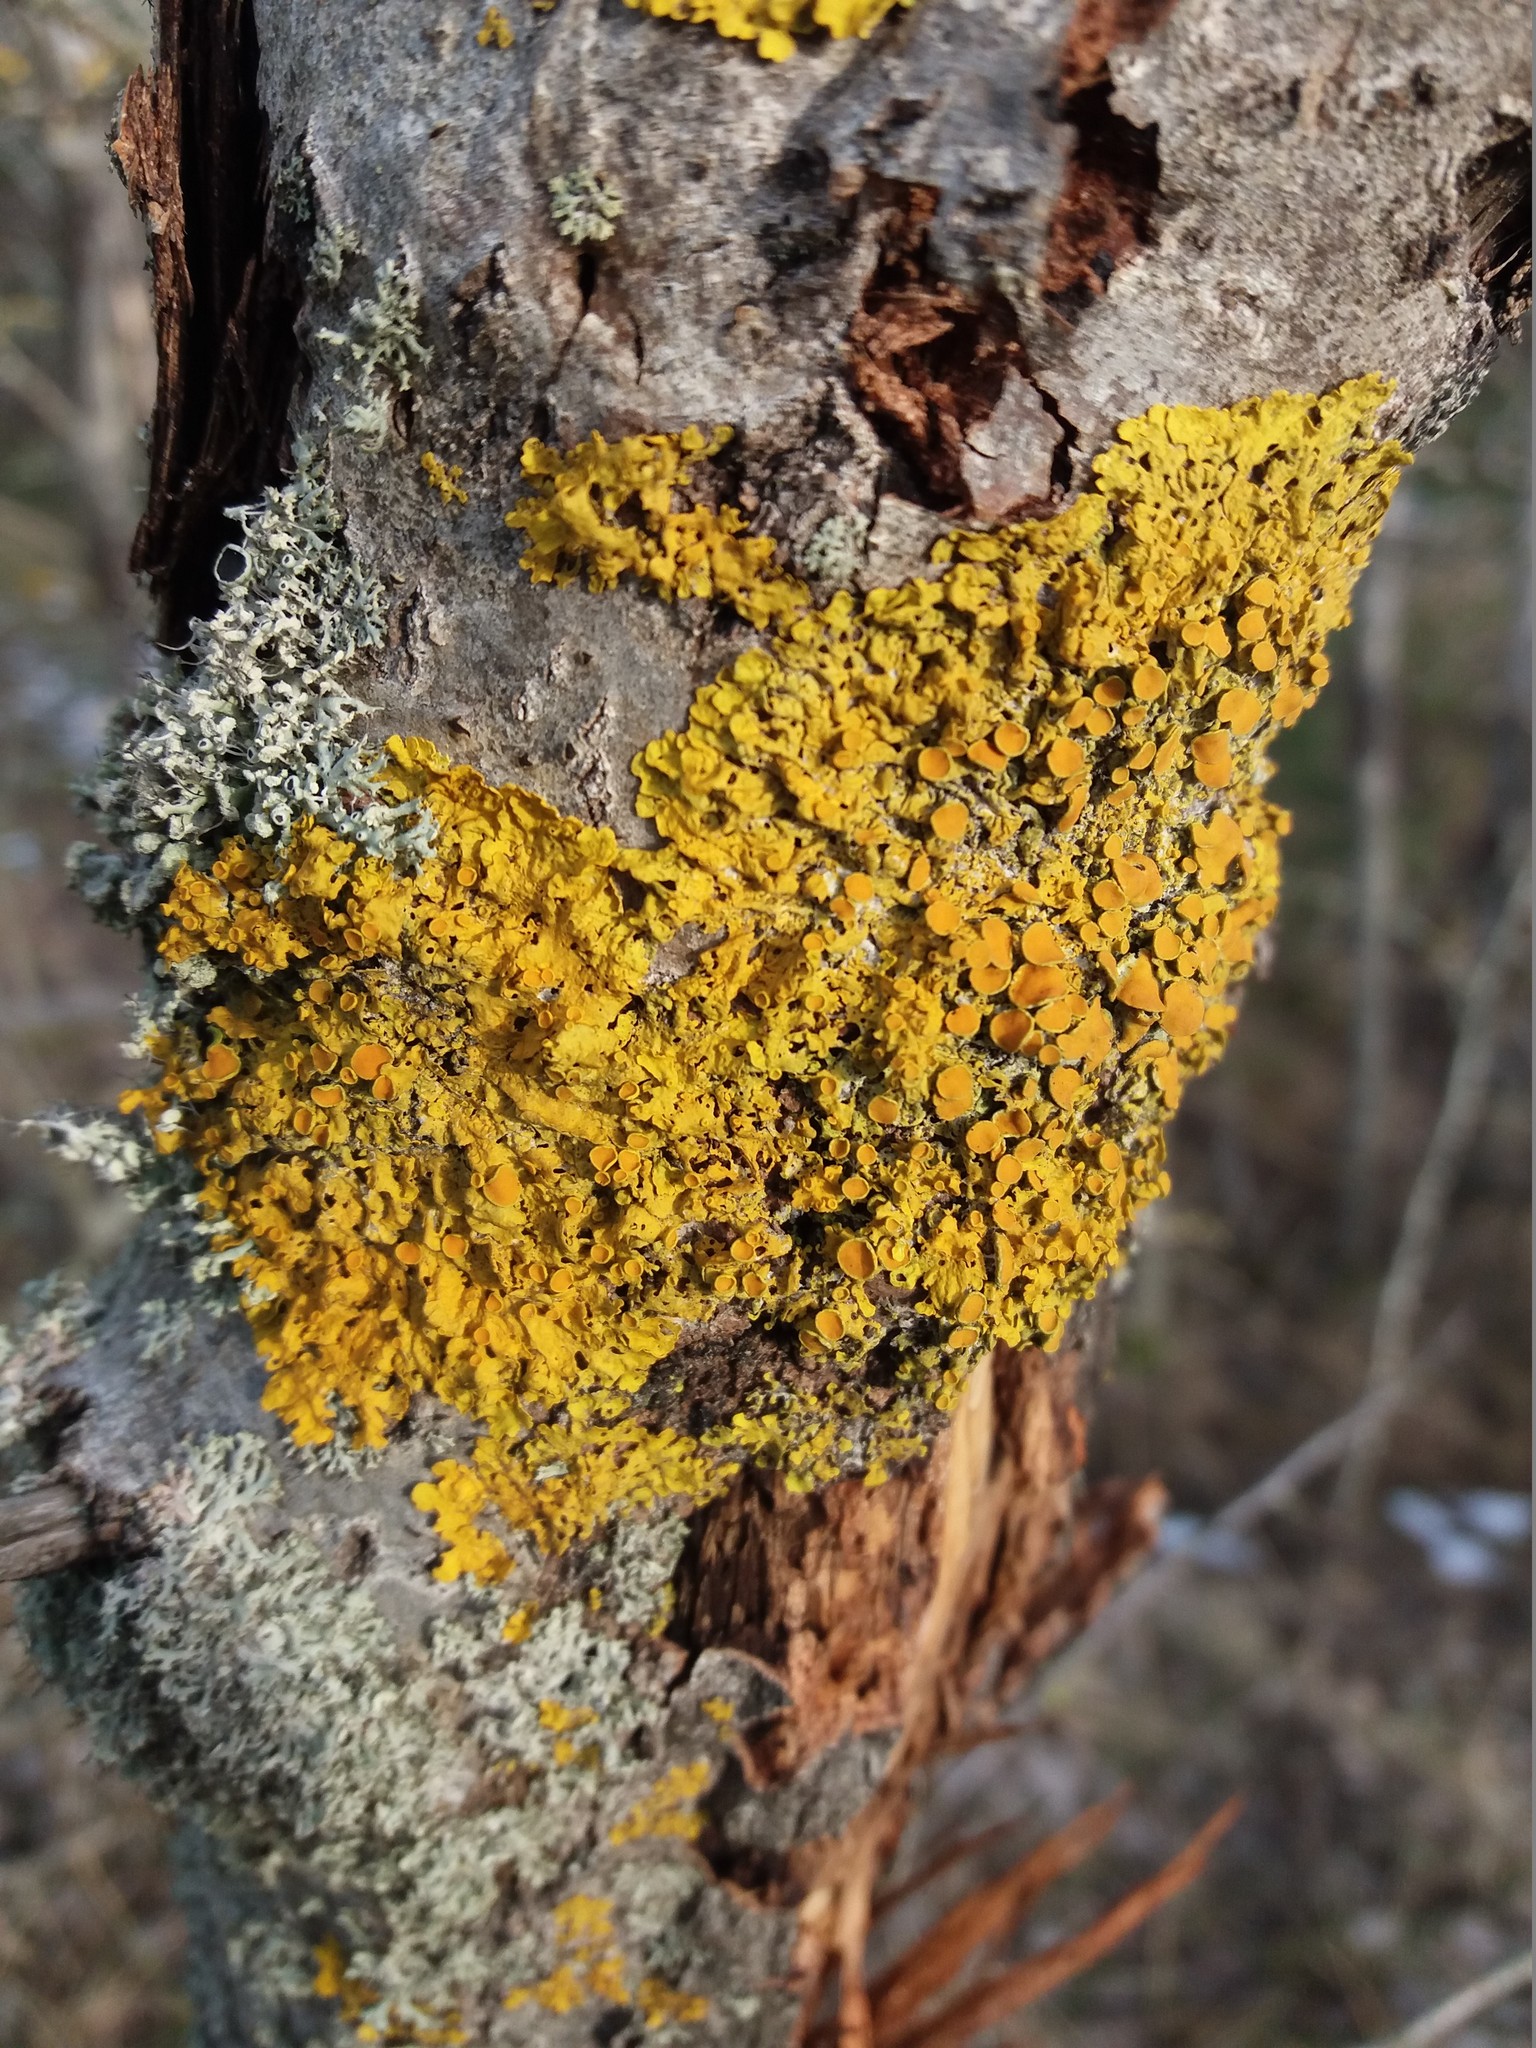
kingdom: Fungi
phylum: Ascomycota
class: Lecanoromycetes
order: Teloschistales
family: Teloschistaceae
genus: Xanthoria
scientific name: Xanthoria parietina
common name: Common orange lichen
